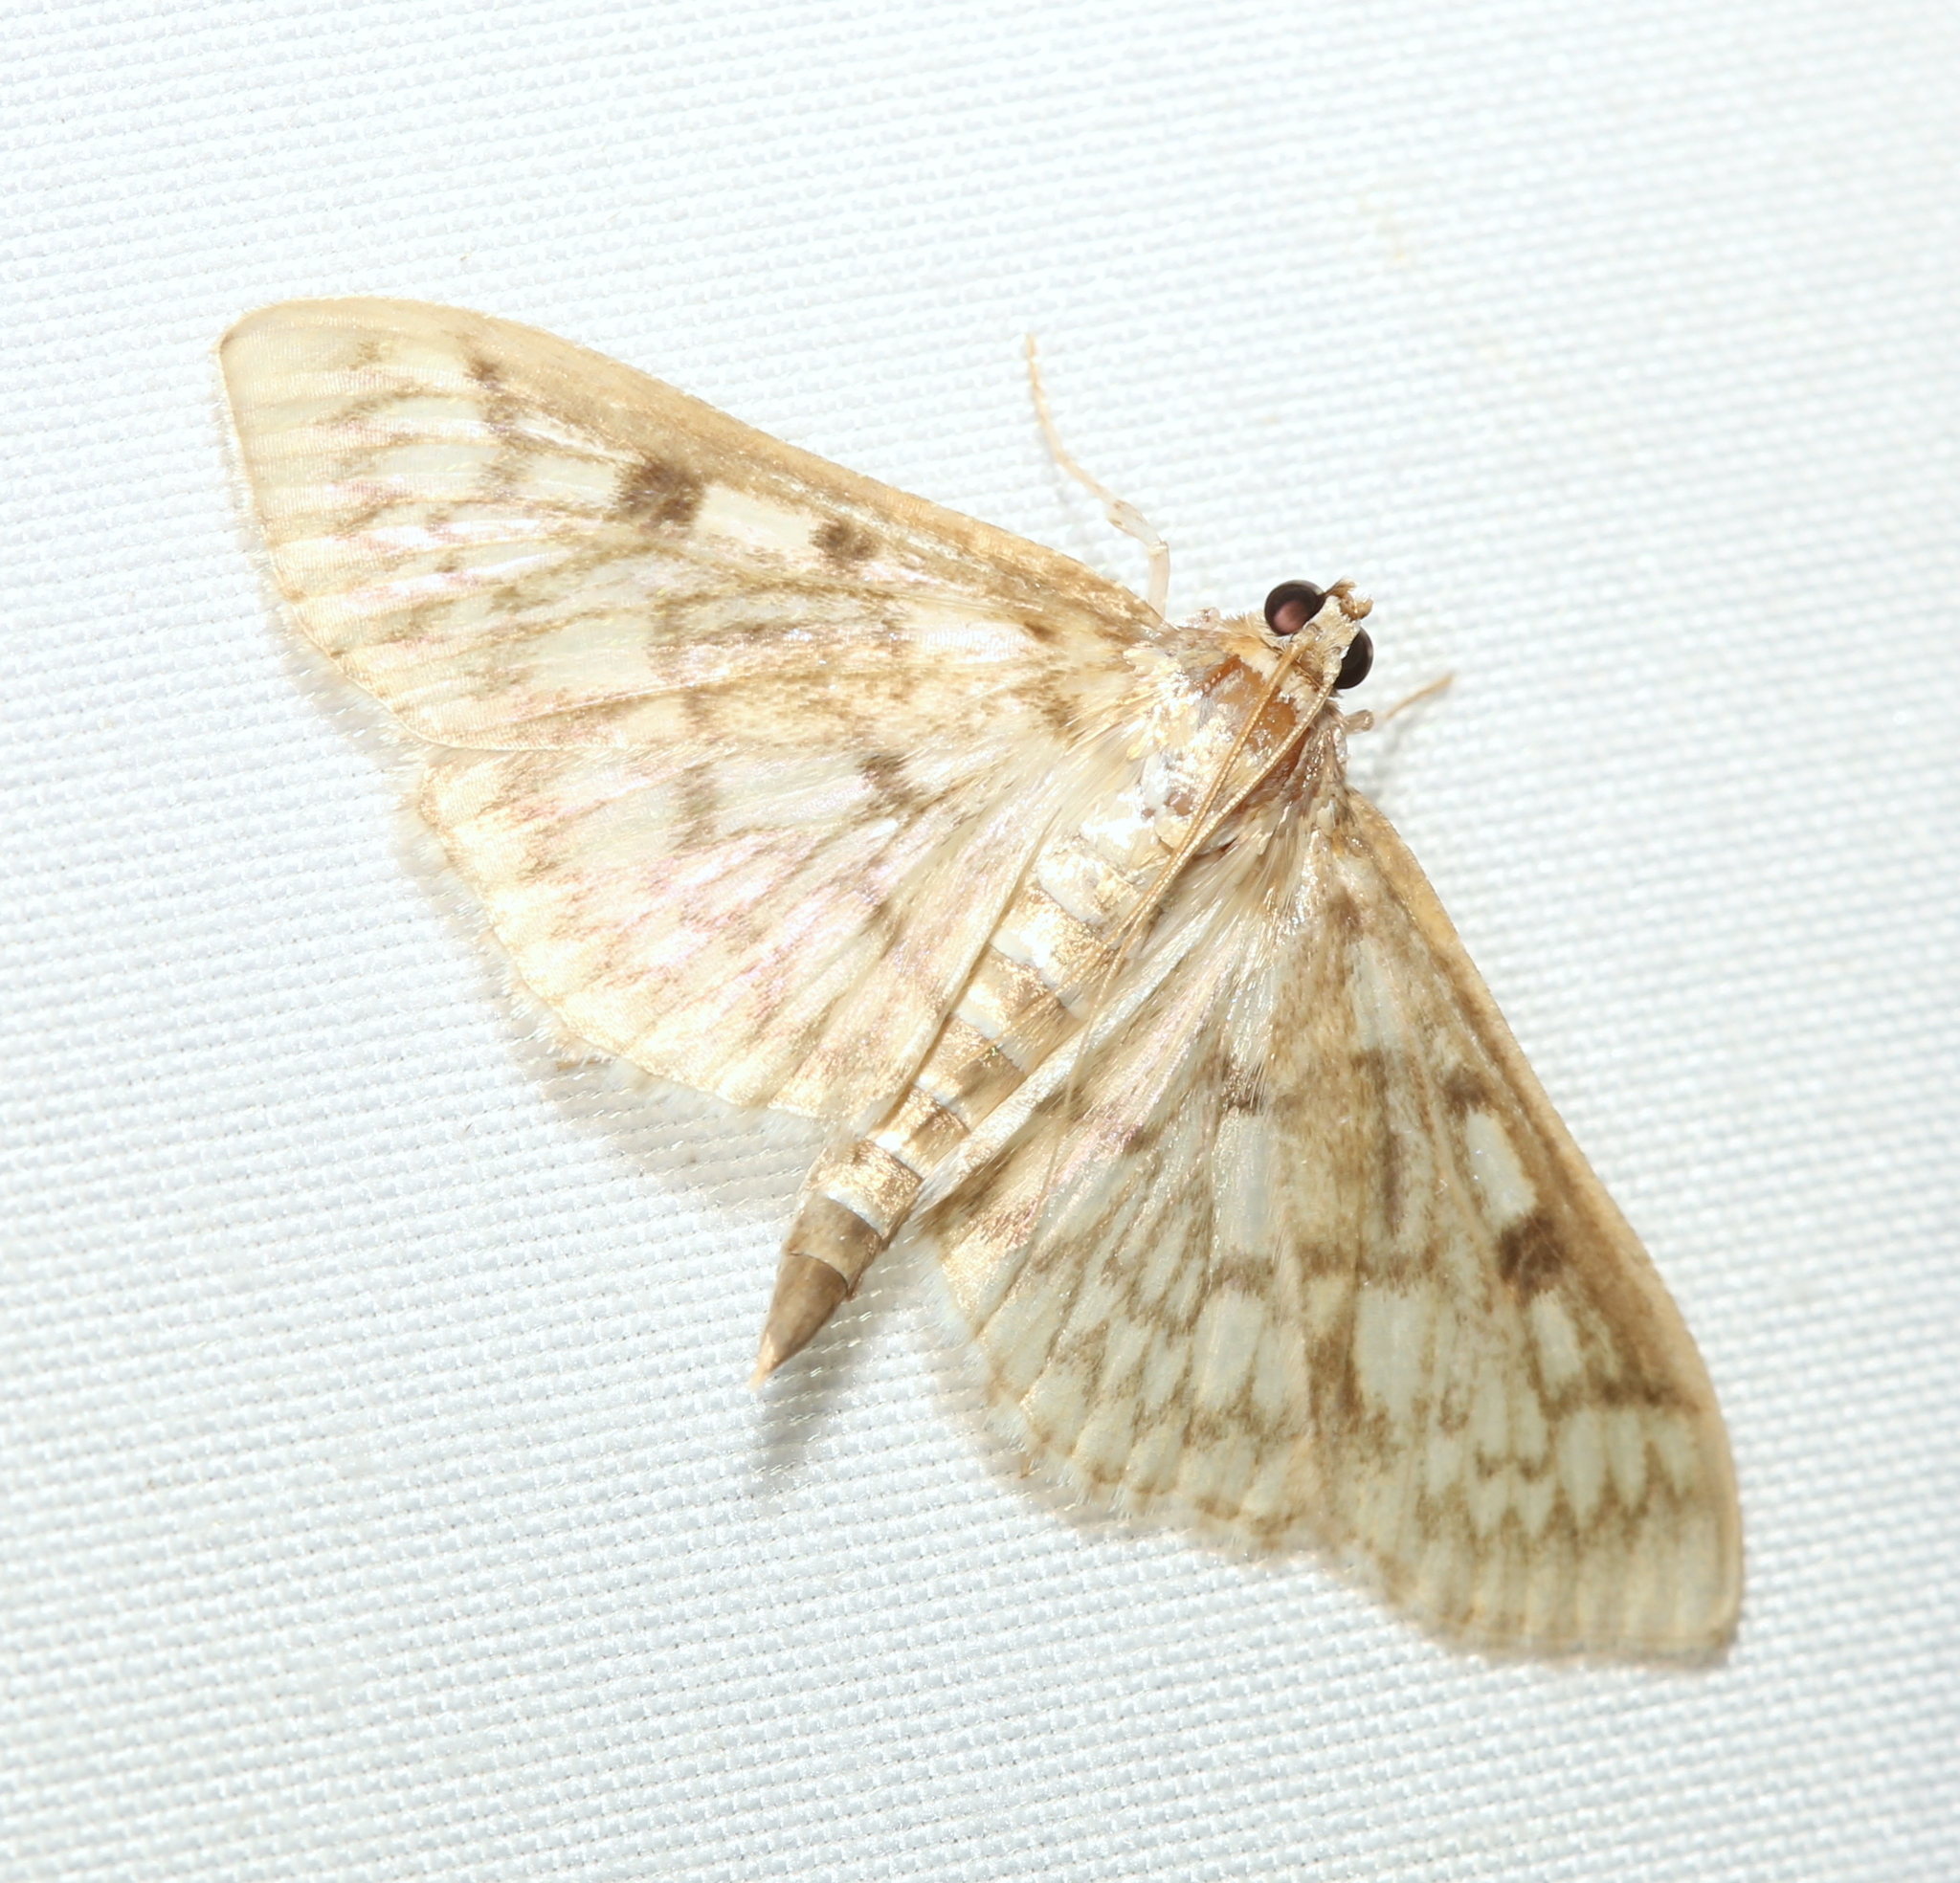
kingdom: Animalia
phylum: Arthropoda
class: Insecta
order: Lepidoptera
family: Crambidae
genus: Herpetogramma
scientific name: Herpetogramma pertextalis
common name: Bold-feathered grass moth
